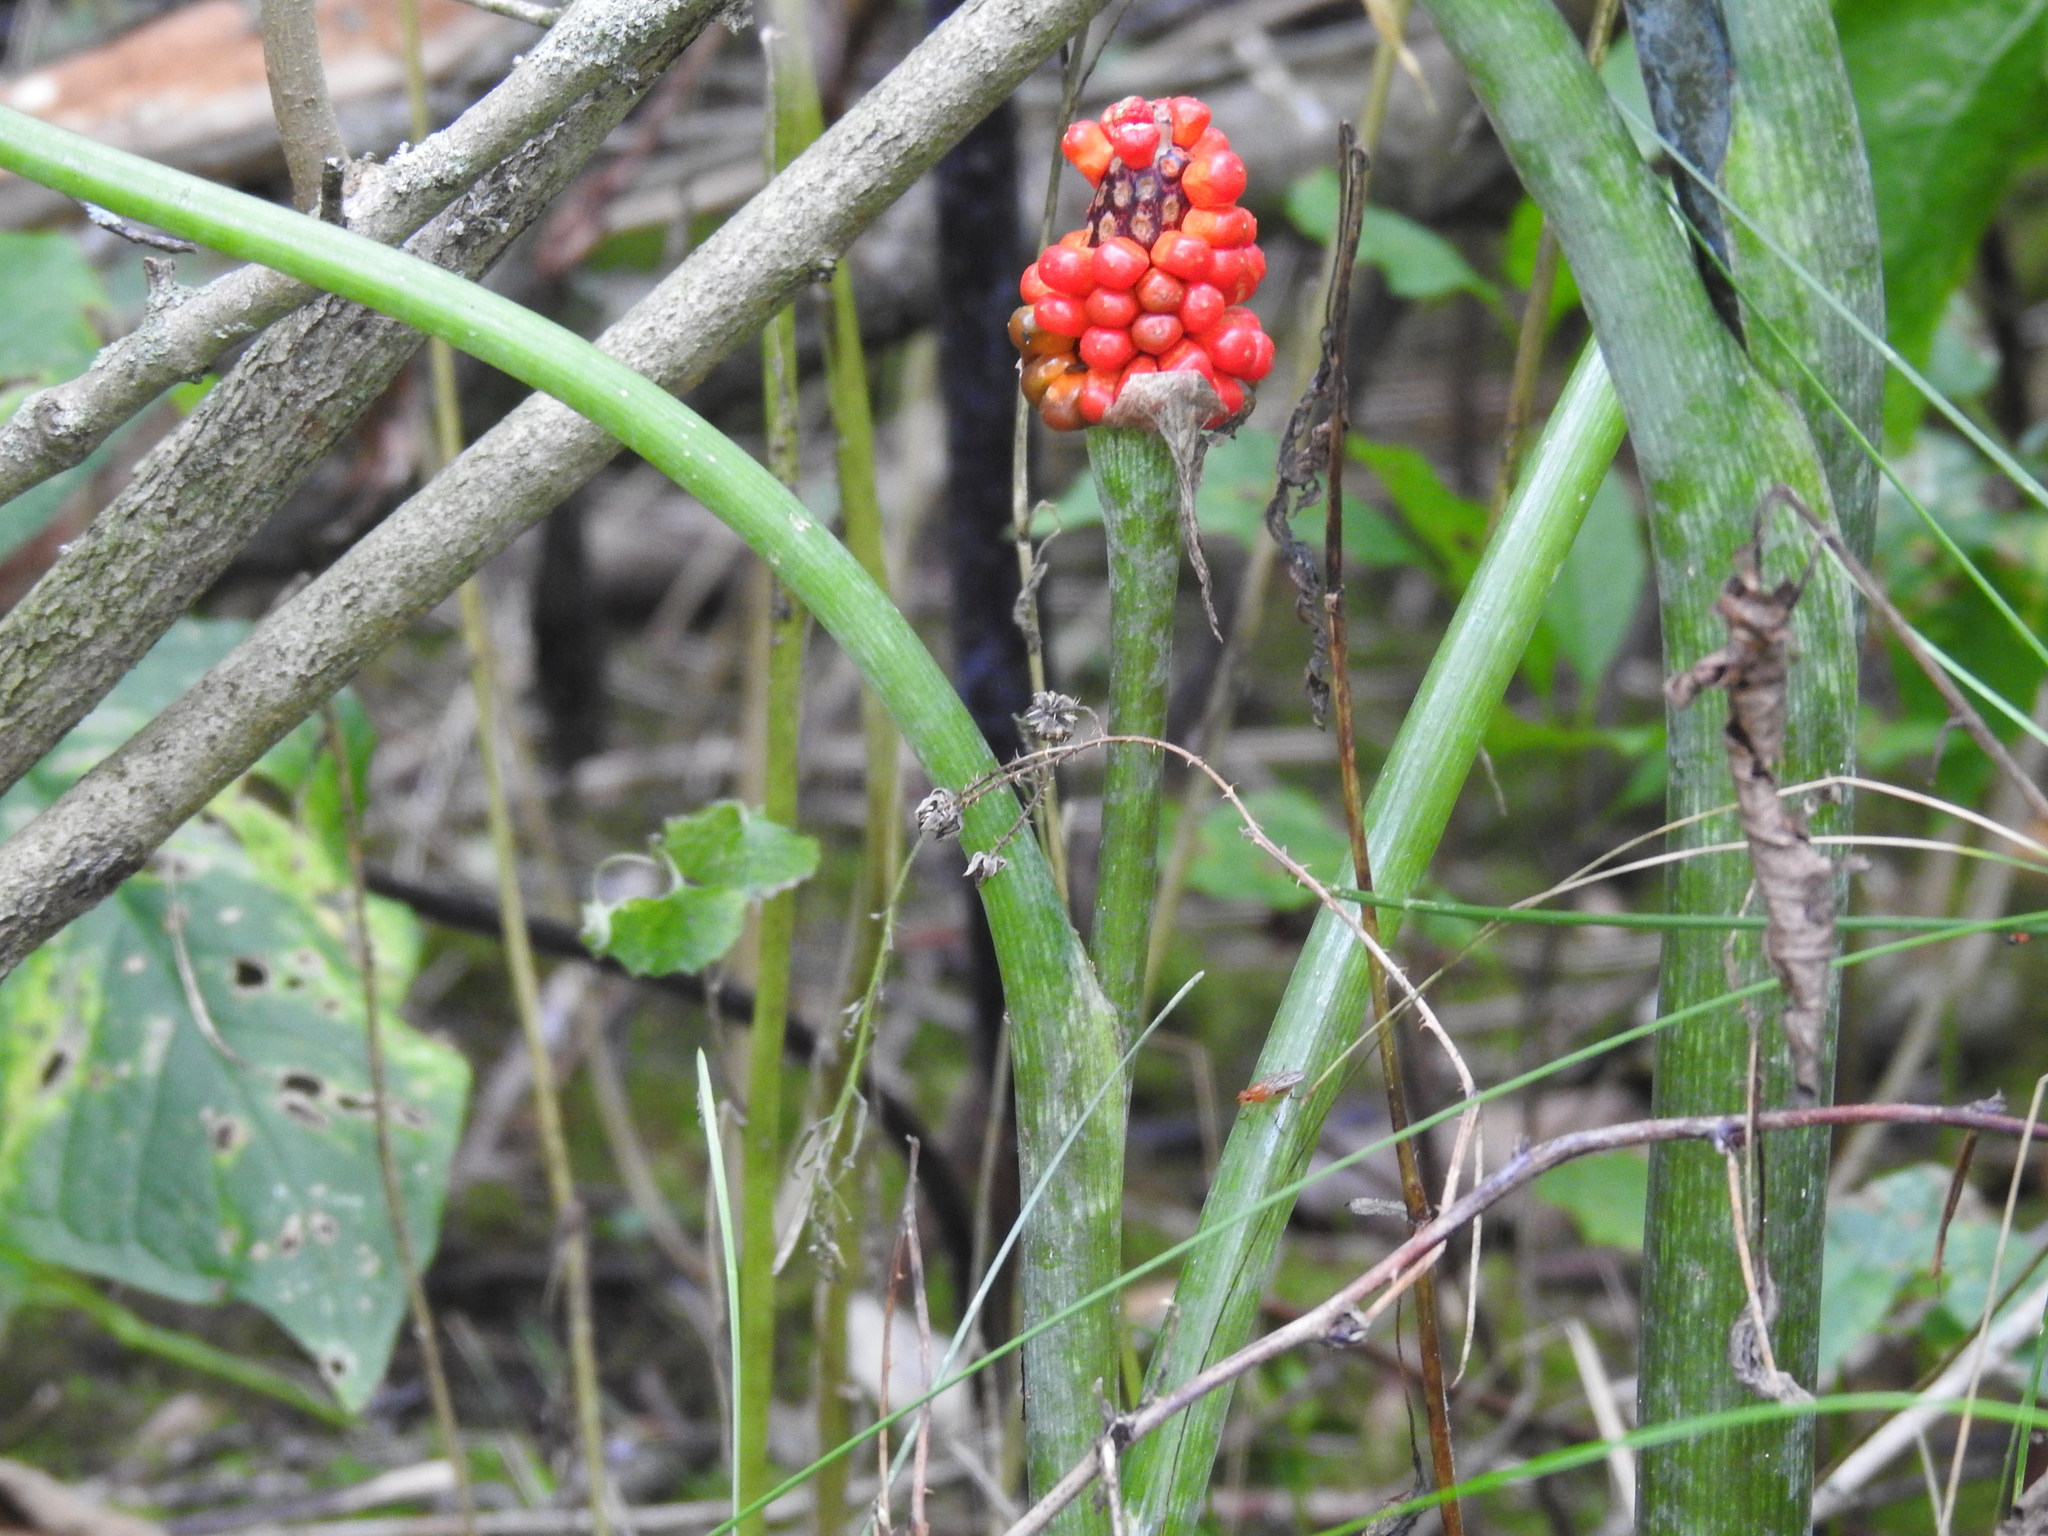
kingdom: Plantae
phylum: Tracheophyta
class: Liliopsida
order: Alismatales
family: Araceae
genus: Arisaema
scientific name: Arisaema triphyllum
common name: Jack-in-the-pulpit
